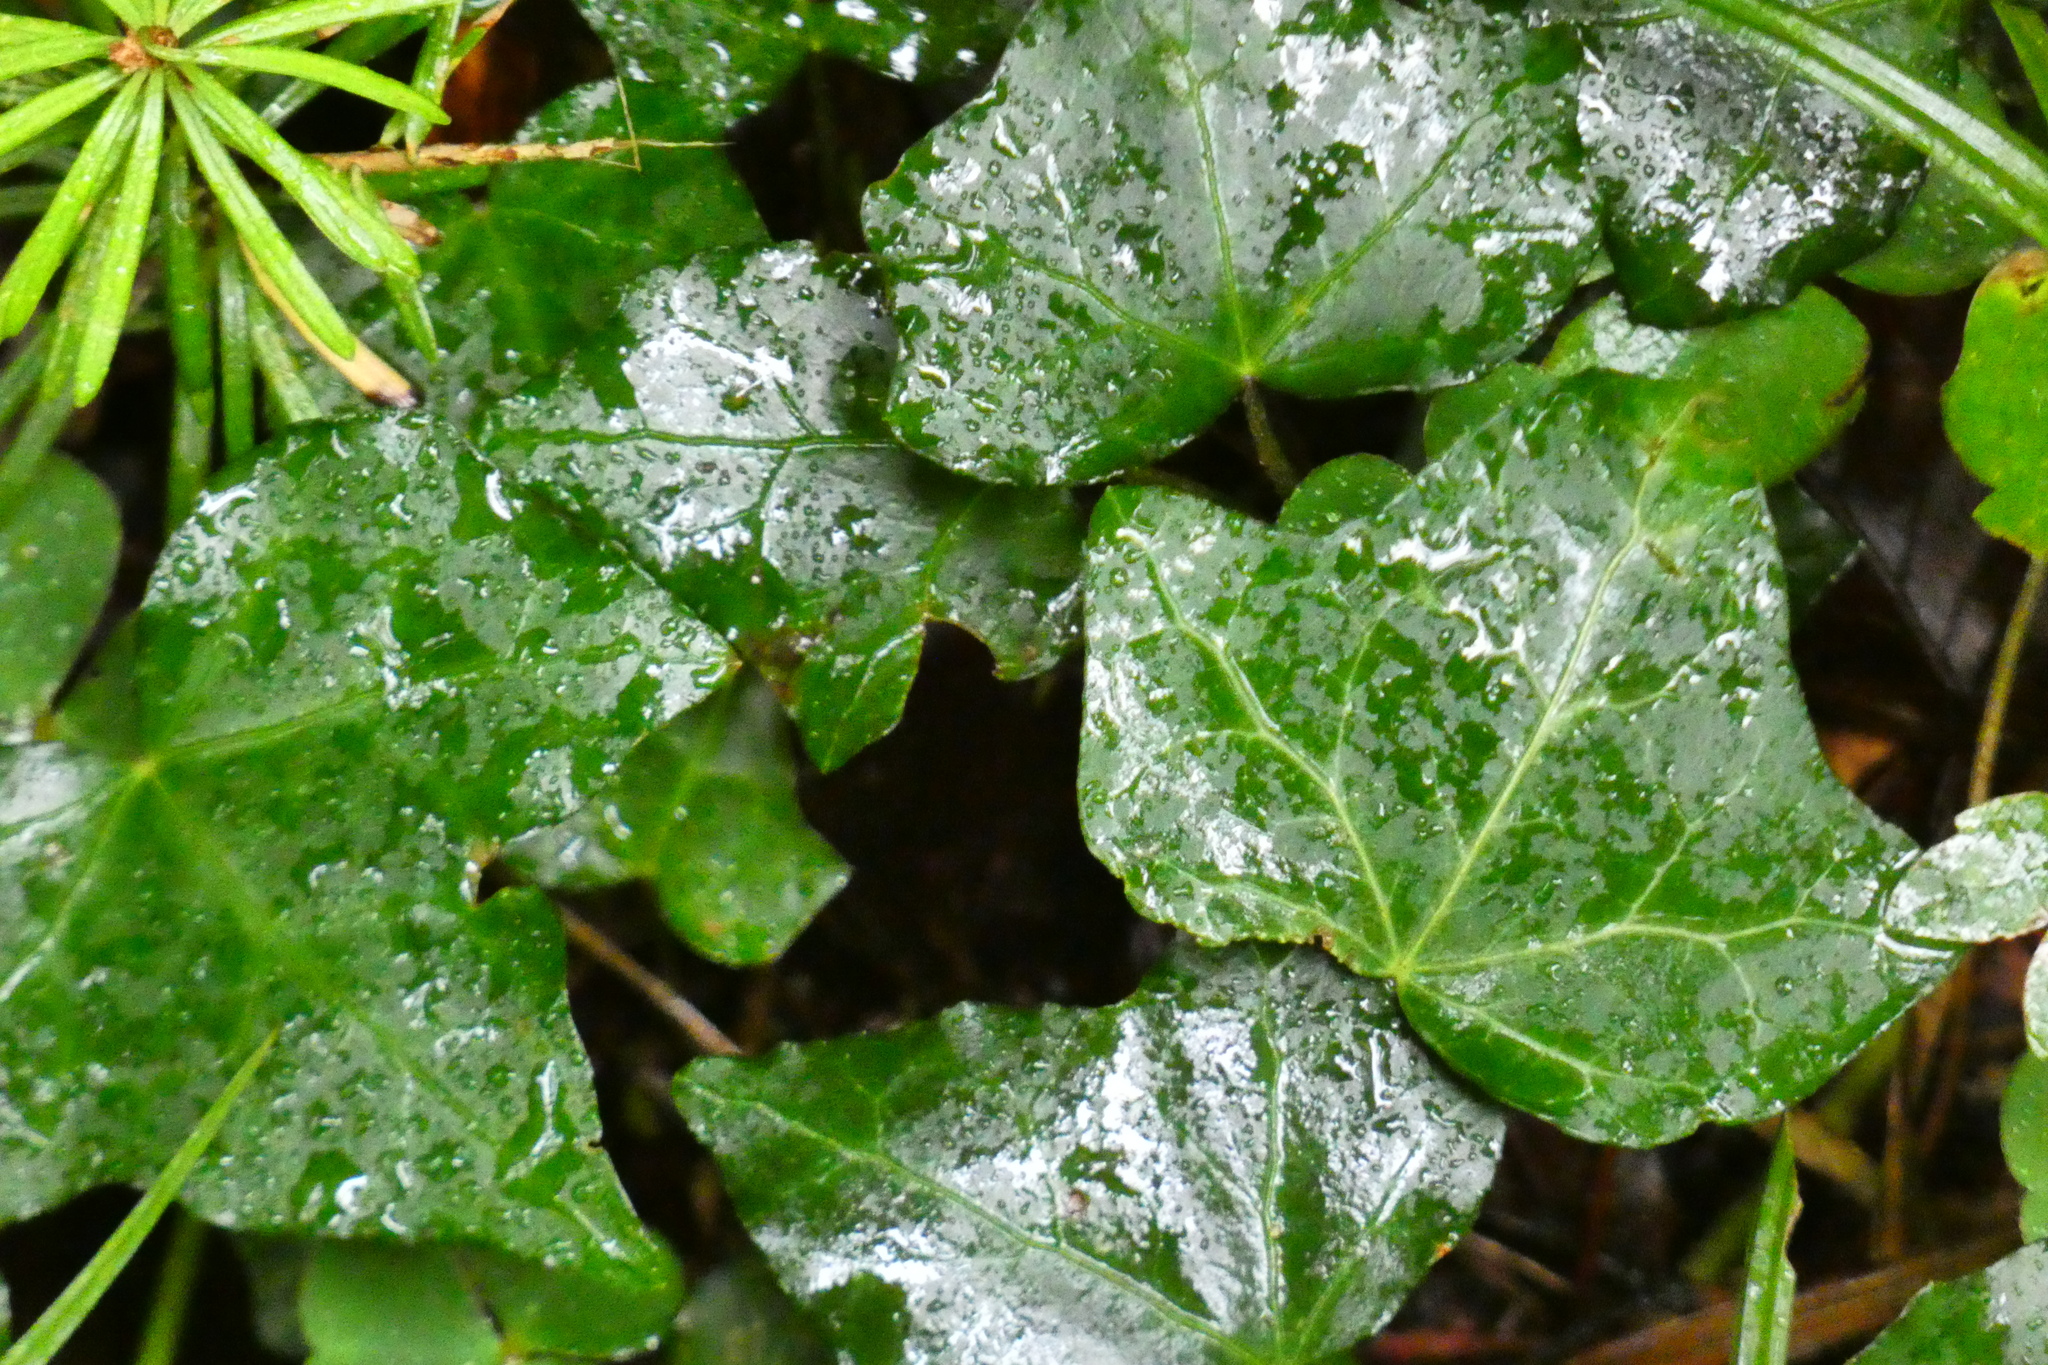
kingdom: Plantae
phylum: Tracheophyta
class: Magnoliopsida
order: Apiales
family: Araliaceae
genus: Hedera
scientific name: Hedera helix
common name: Ivy
